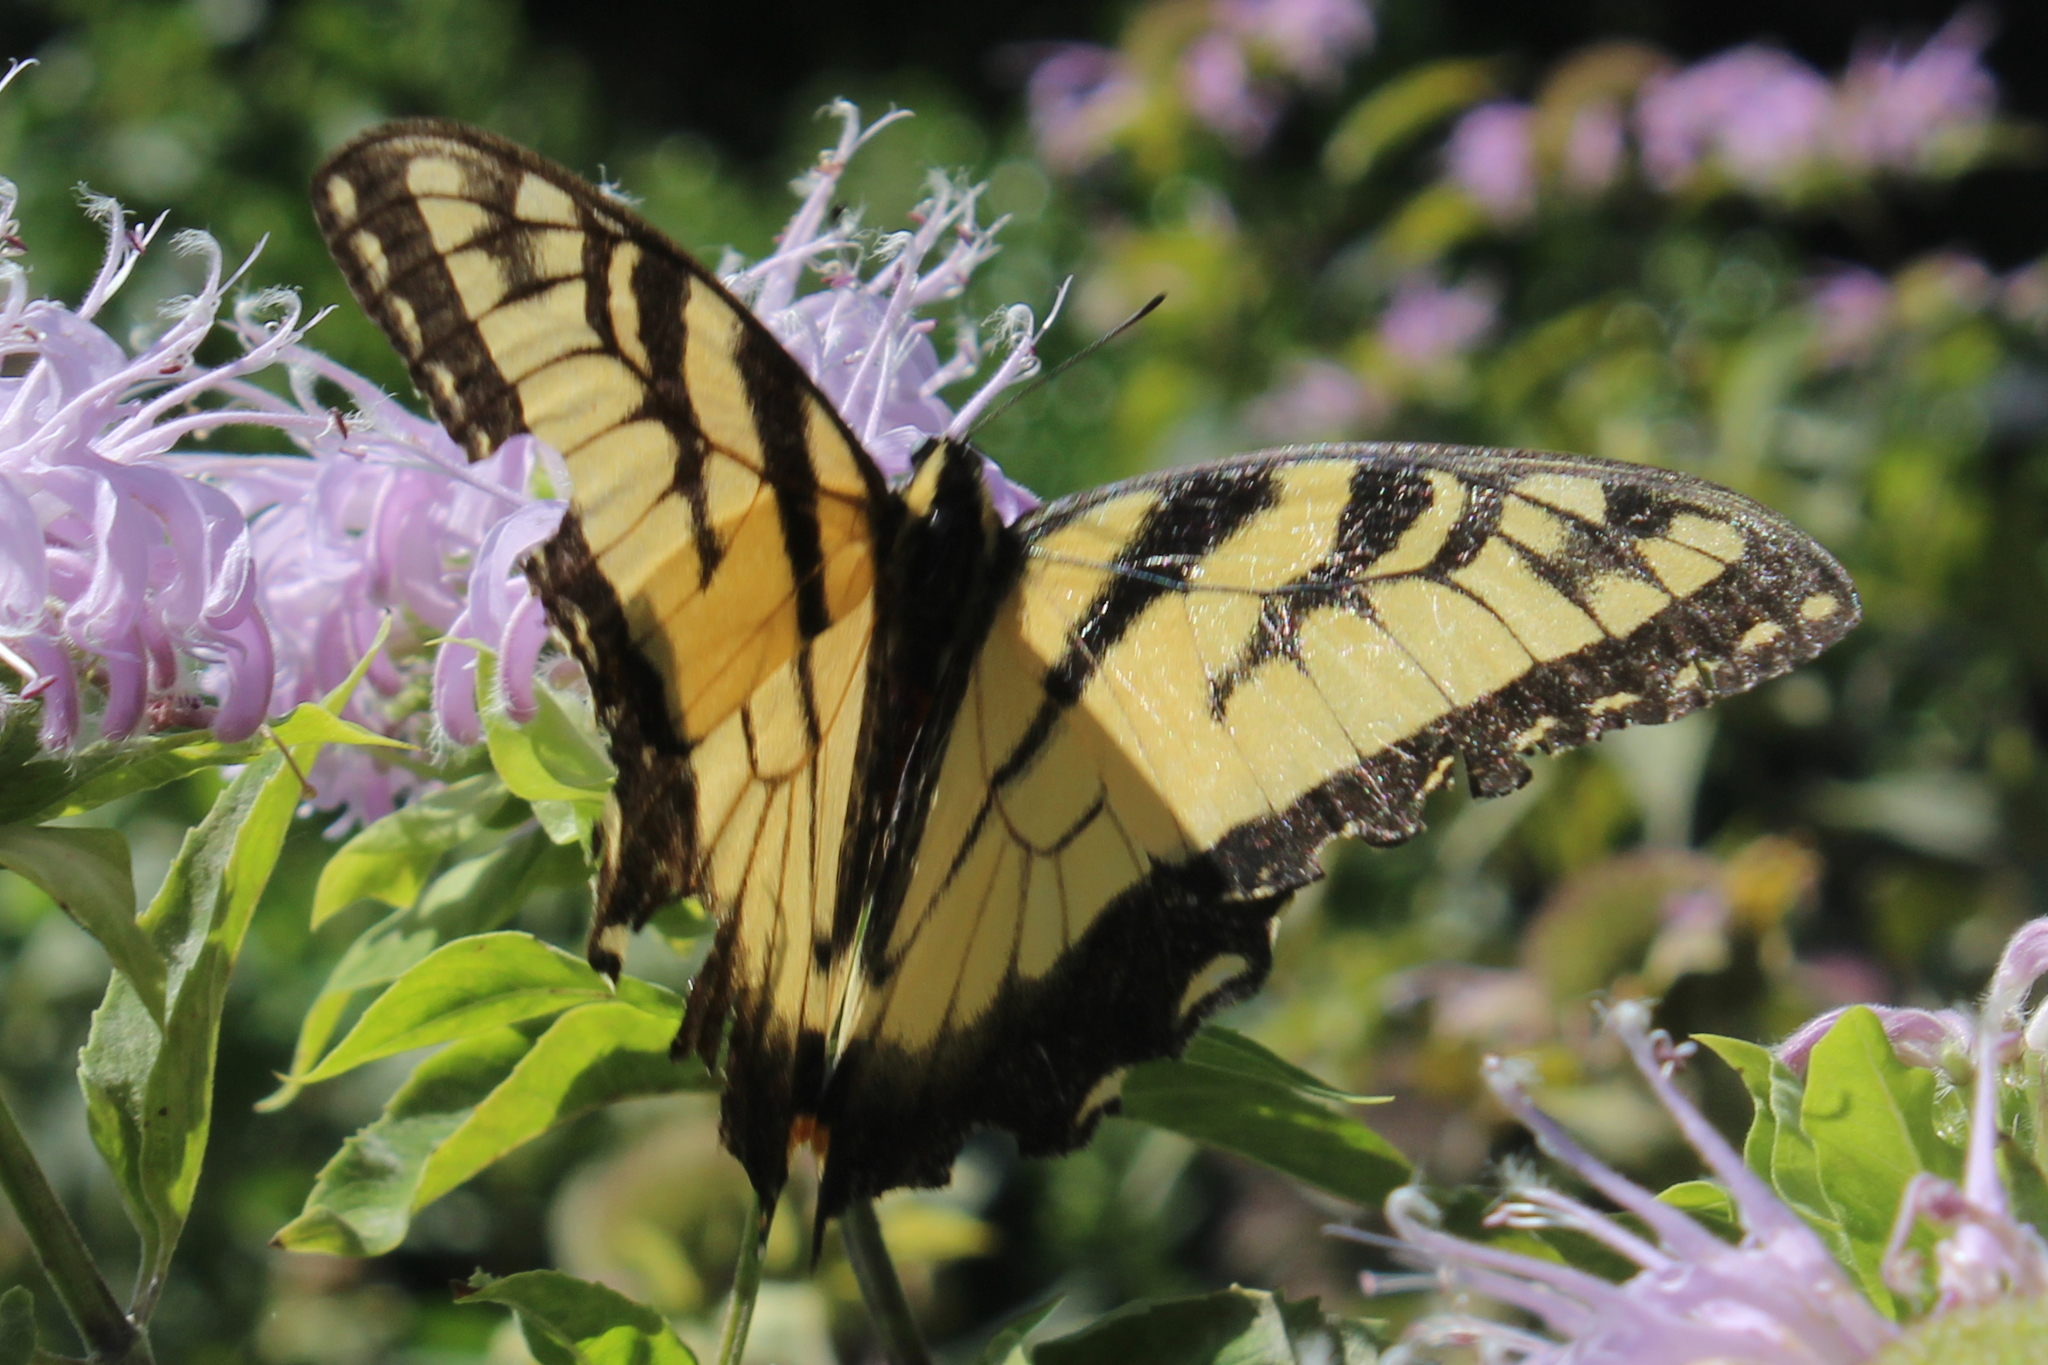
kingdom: Animalia
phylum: Arthropoda
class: Insecta
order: Lepidoptera
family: Papilionidae
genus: Papilio
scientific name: Papilio glaucus
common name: Tiger swallowtail
